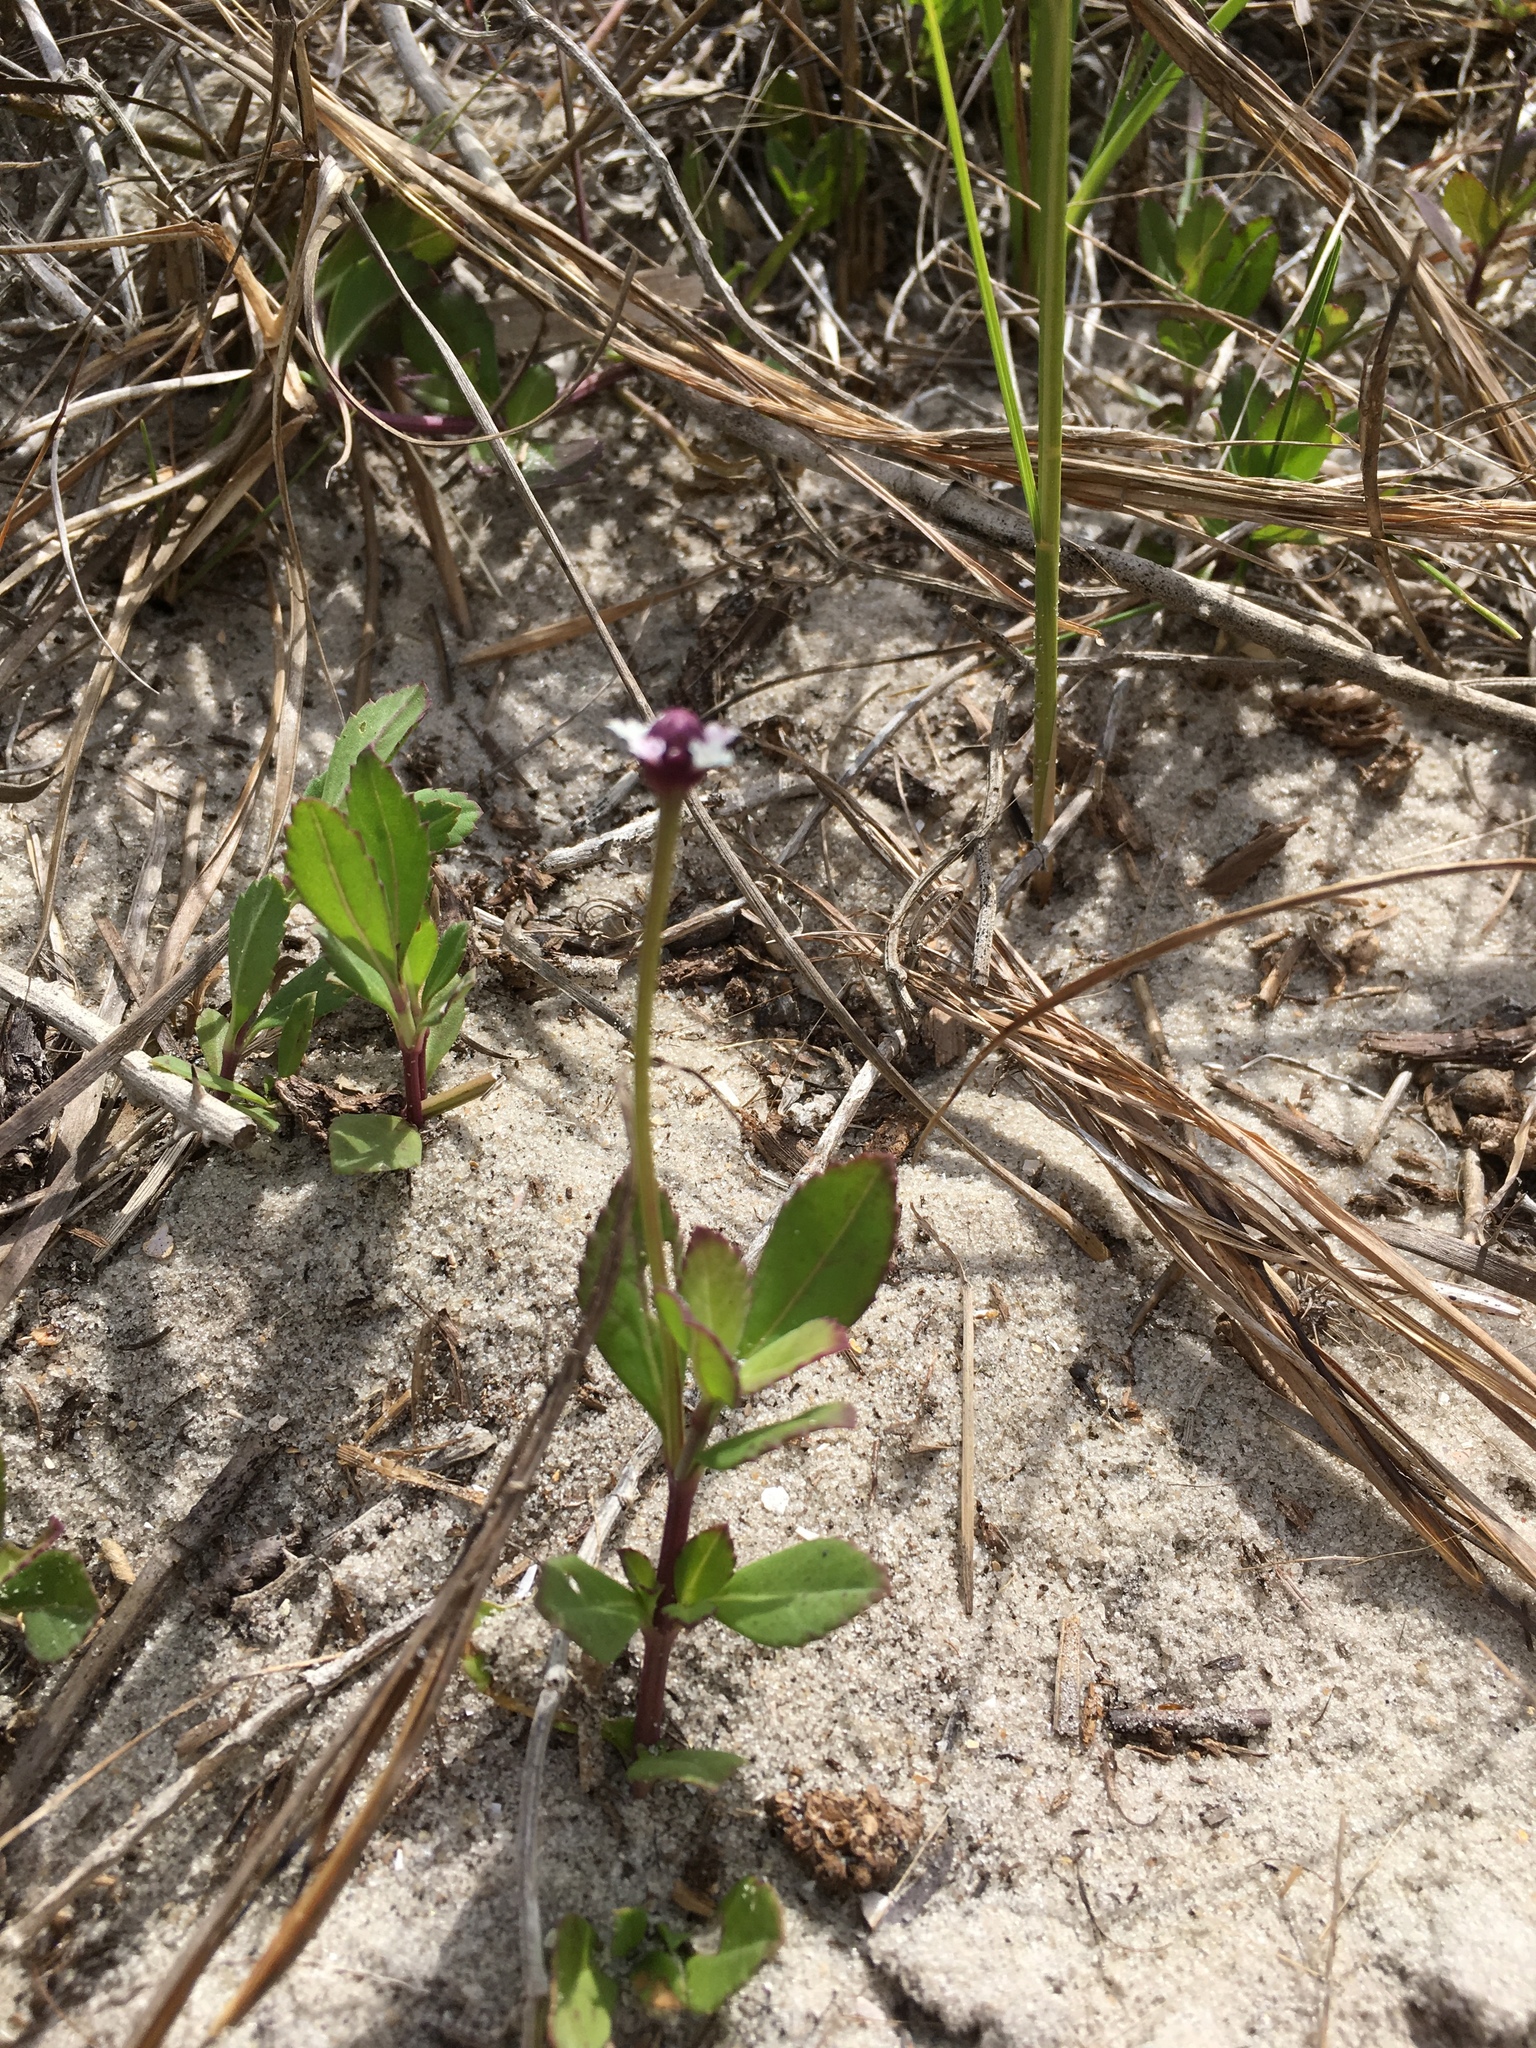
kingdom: Plantae
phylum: Tracheophyta
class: Magnoliopsida
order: Lamiales
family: Verbenaceae
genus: Phyla
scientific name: Phyla nodiflora
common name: Frogfruit
